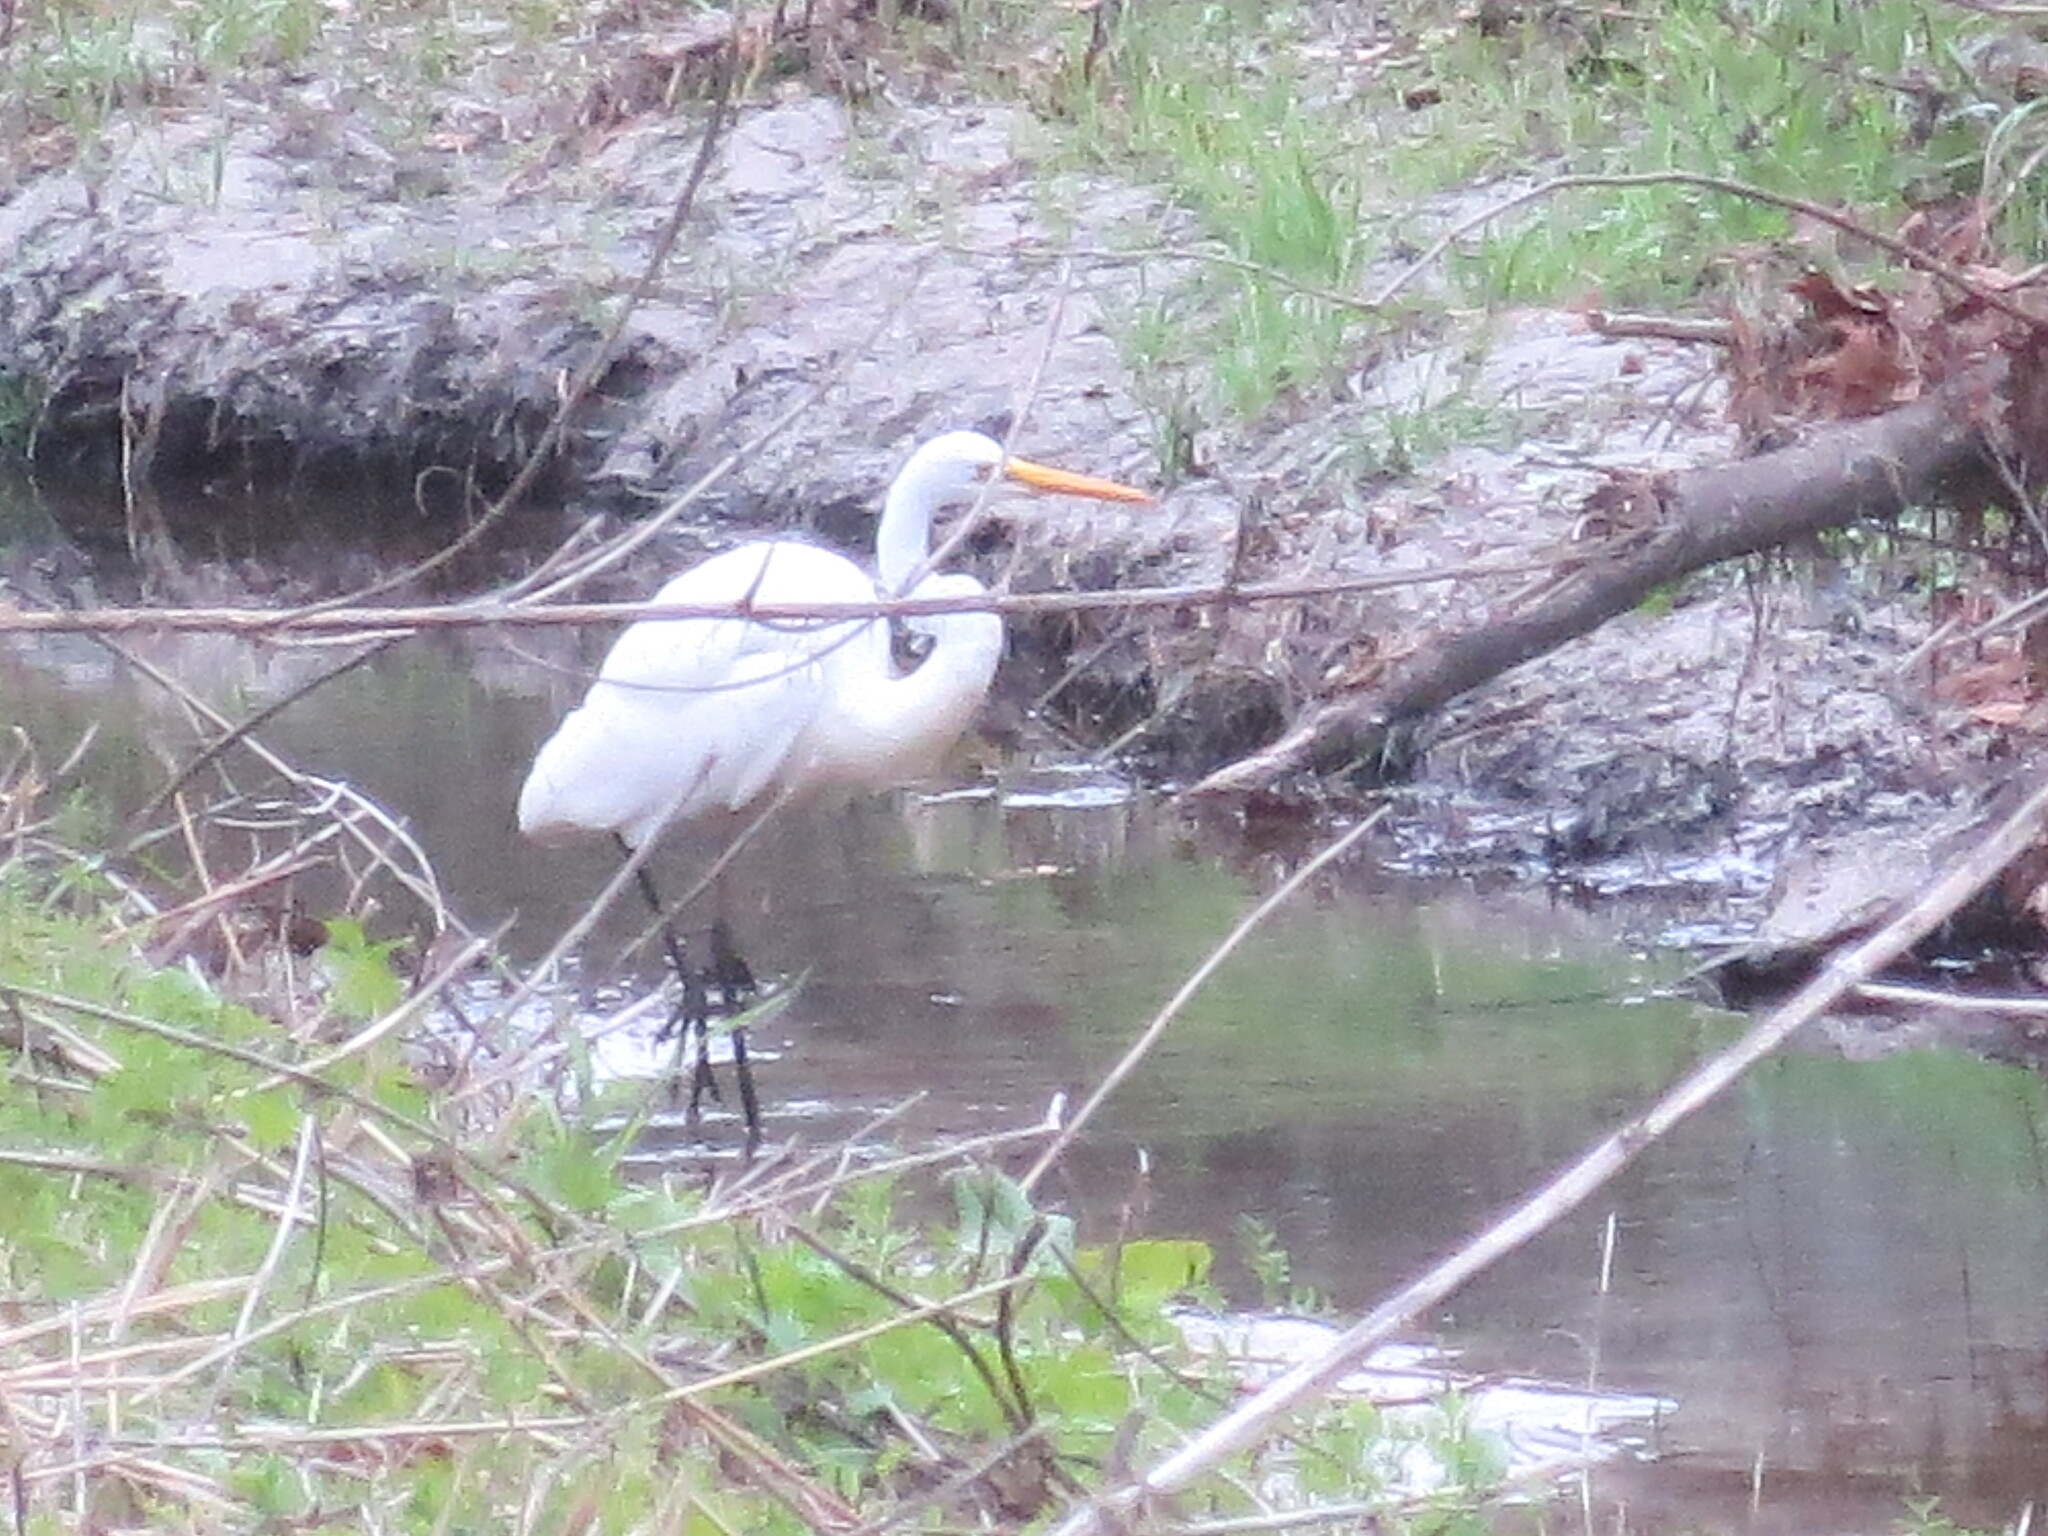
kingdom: Animalia
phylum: Chordata
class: Aves
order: Pelecaniformes
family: Ardeidae
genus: Ardea
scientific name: Ardea alba
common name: Great egret
